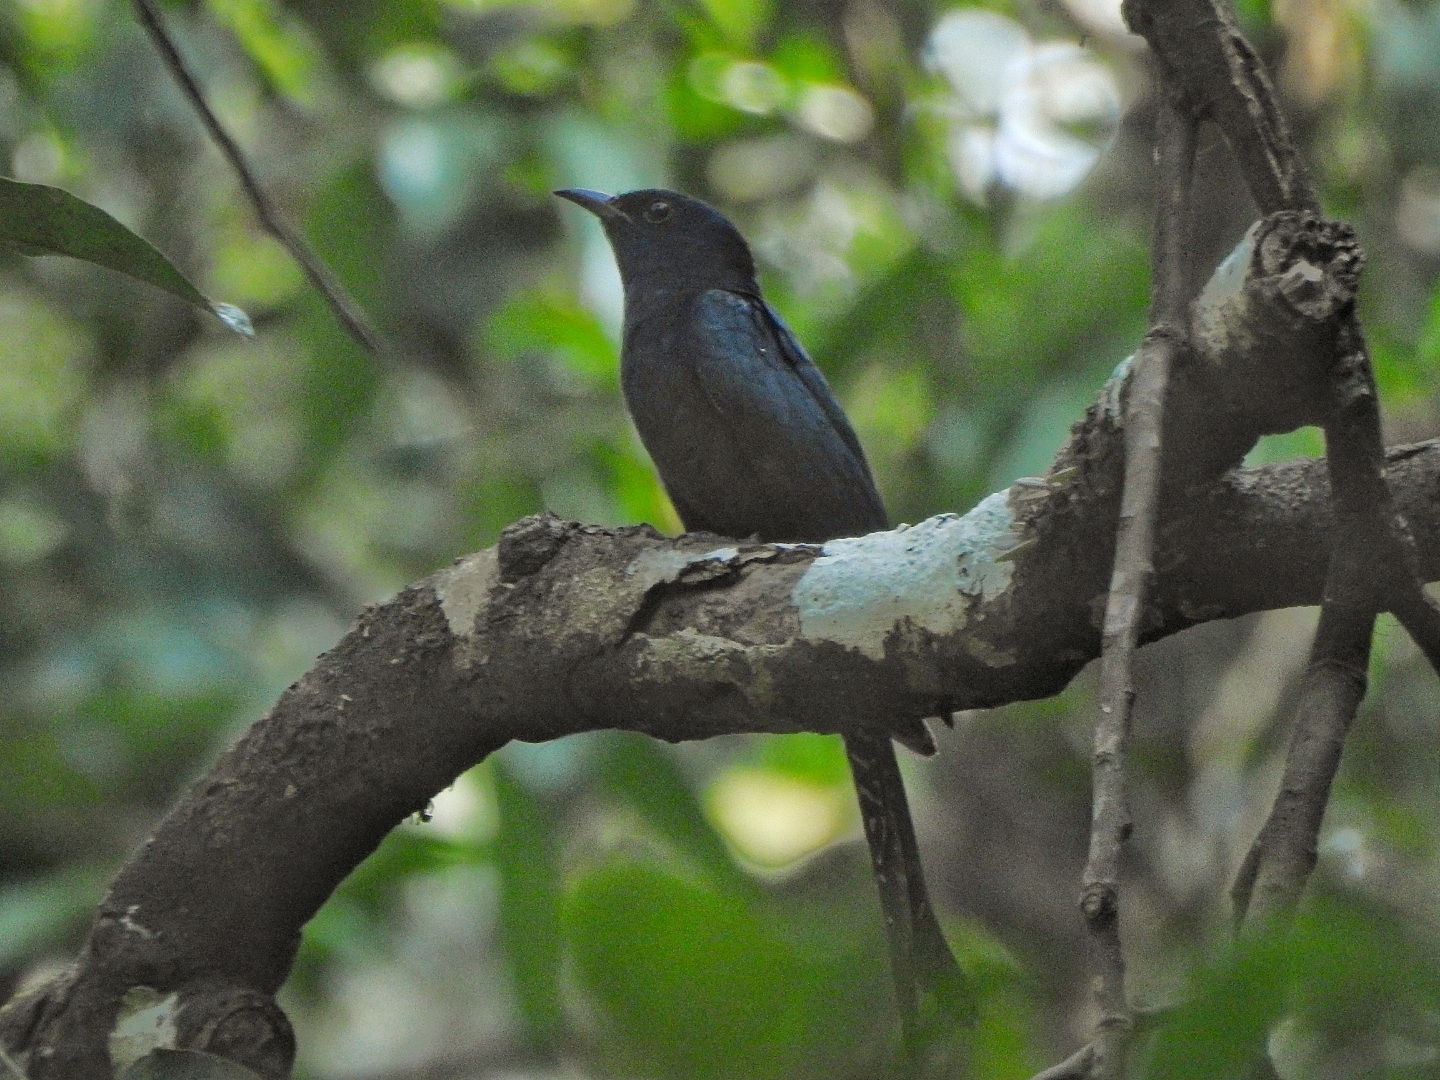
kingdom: Animalia
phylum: Chordata
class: Aves
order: Cuculiformes
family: Cuculidae
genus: Surniculus
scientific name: Surniculus lugubris
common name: Square-tailed drongo-cuckoo
